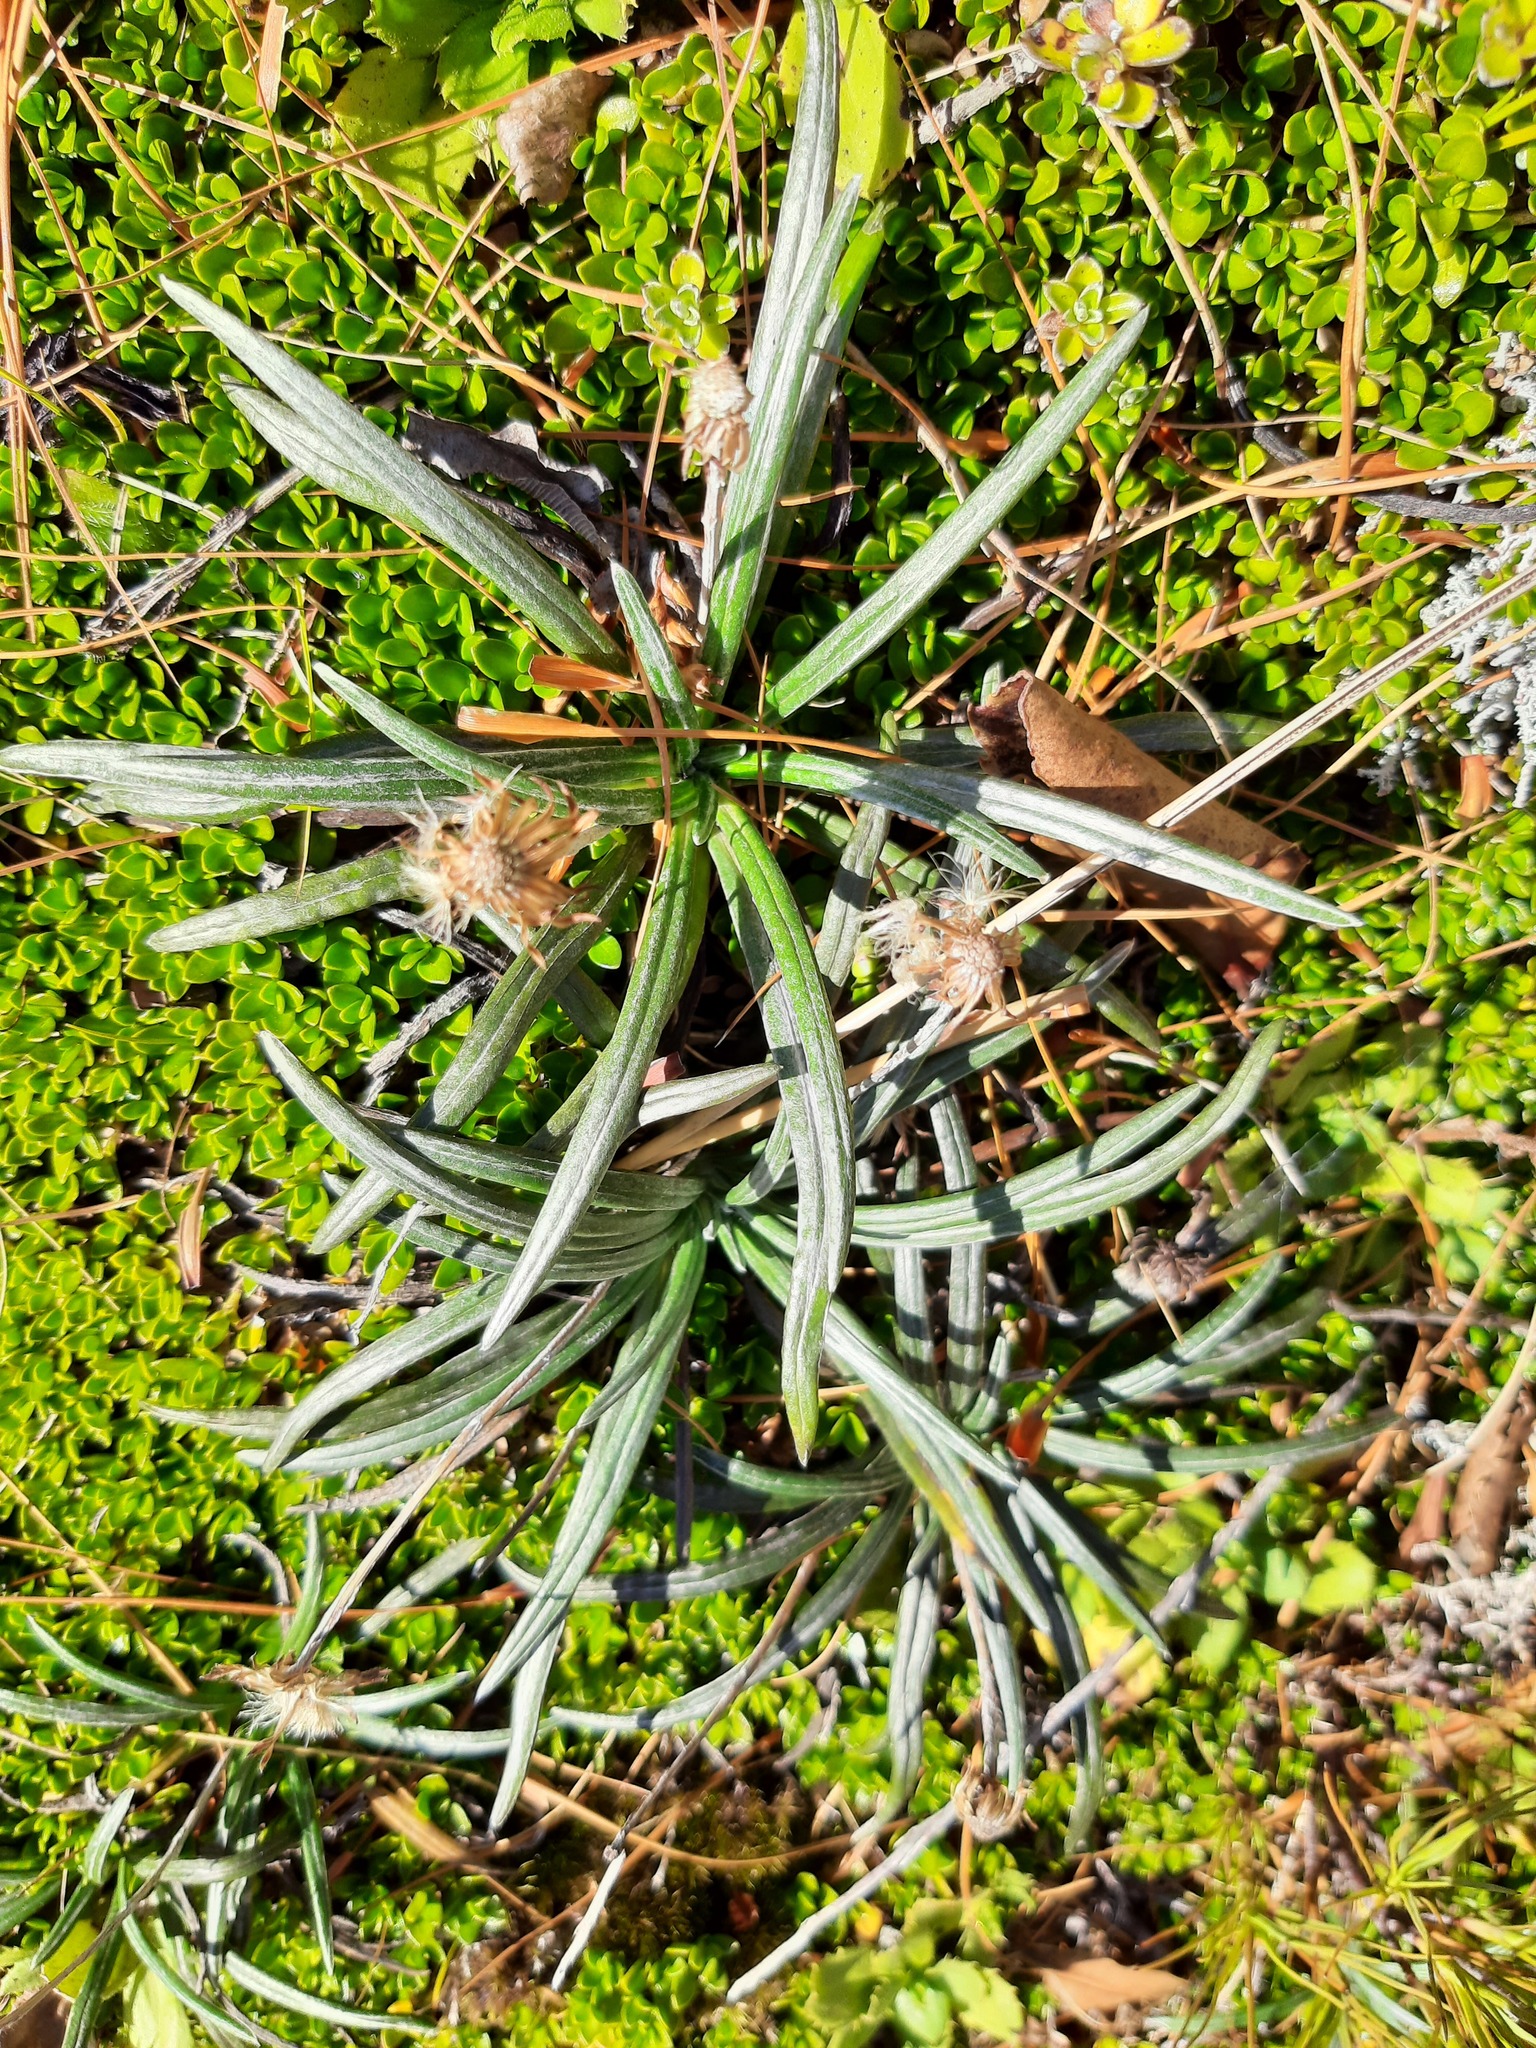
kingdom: Plantae
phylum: Tracheophyta
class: Magnoliopsida
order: Asterales
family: Asteraceae
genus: Celmisia
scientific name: Celmisia major
